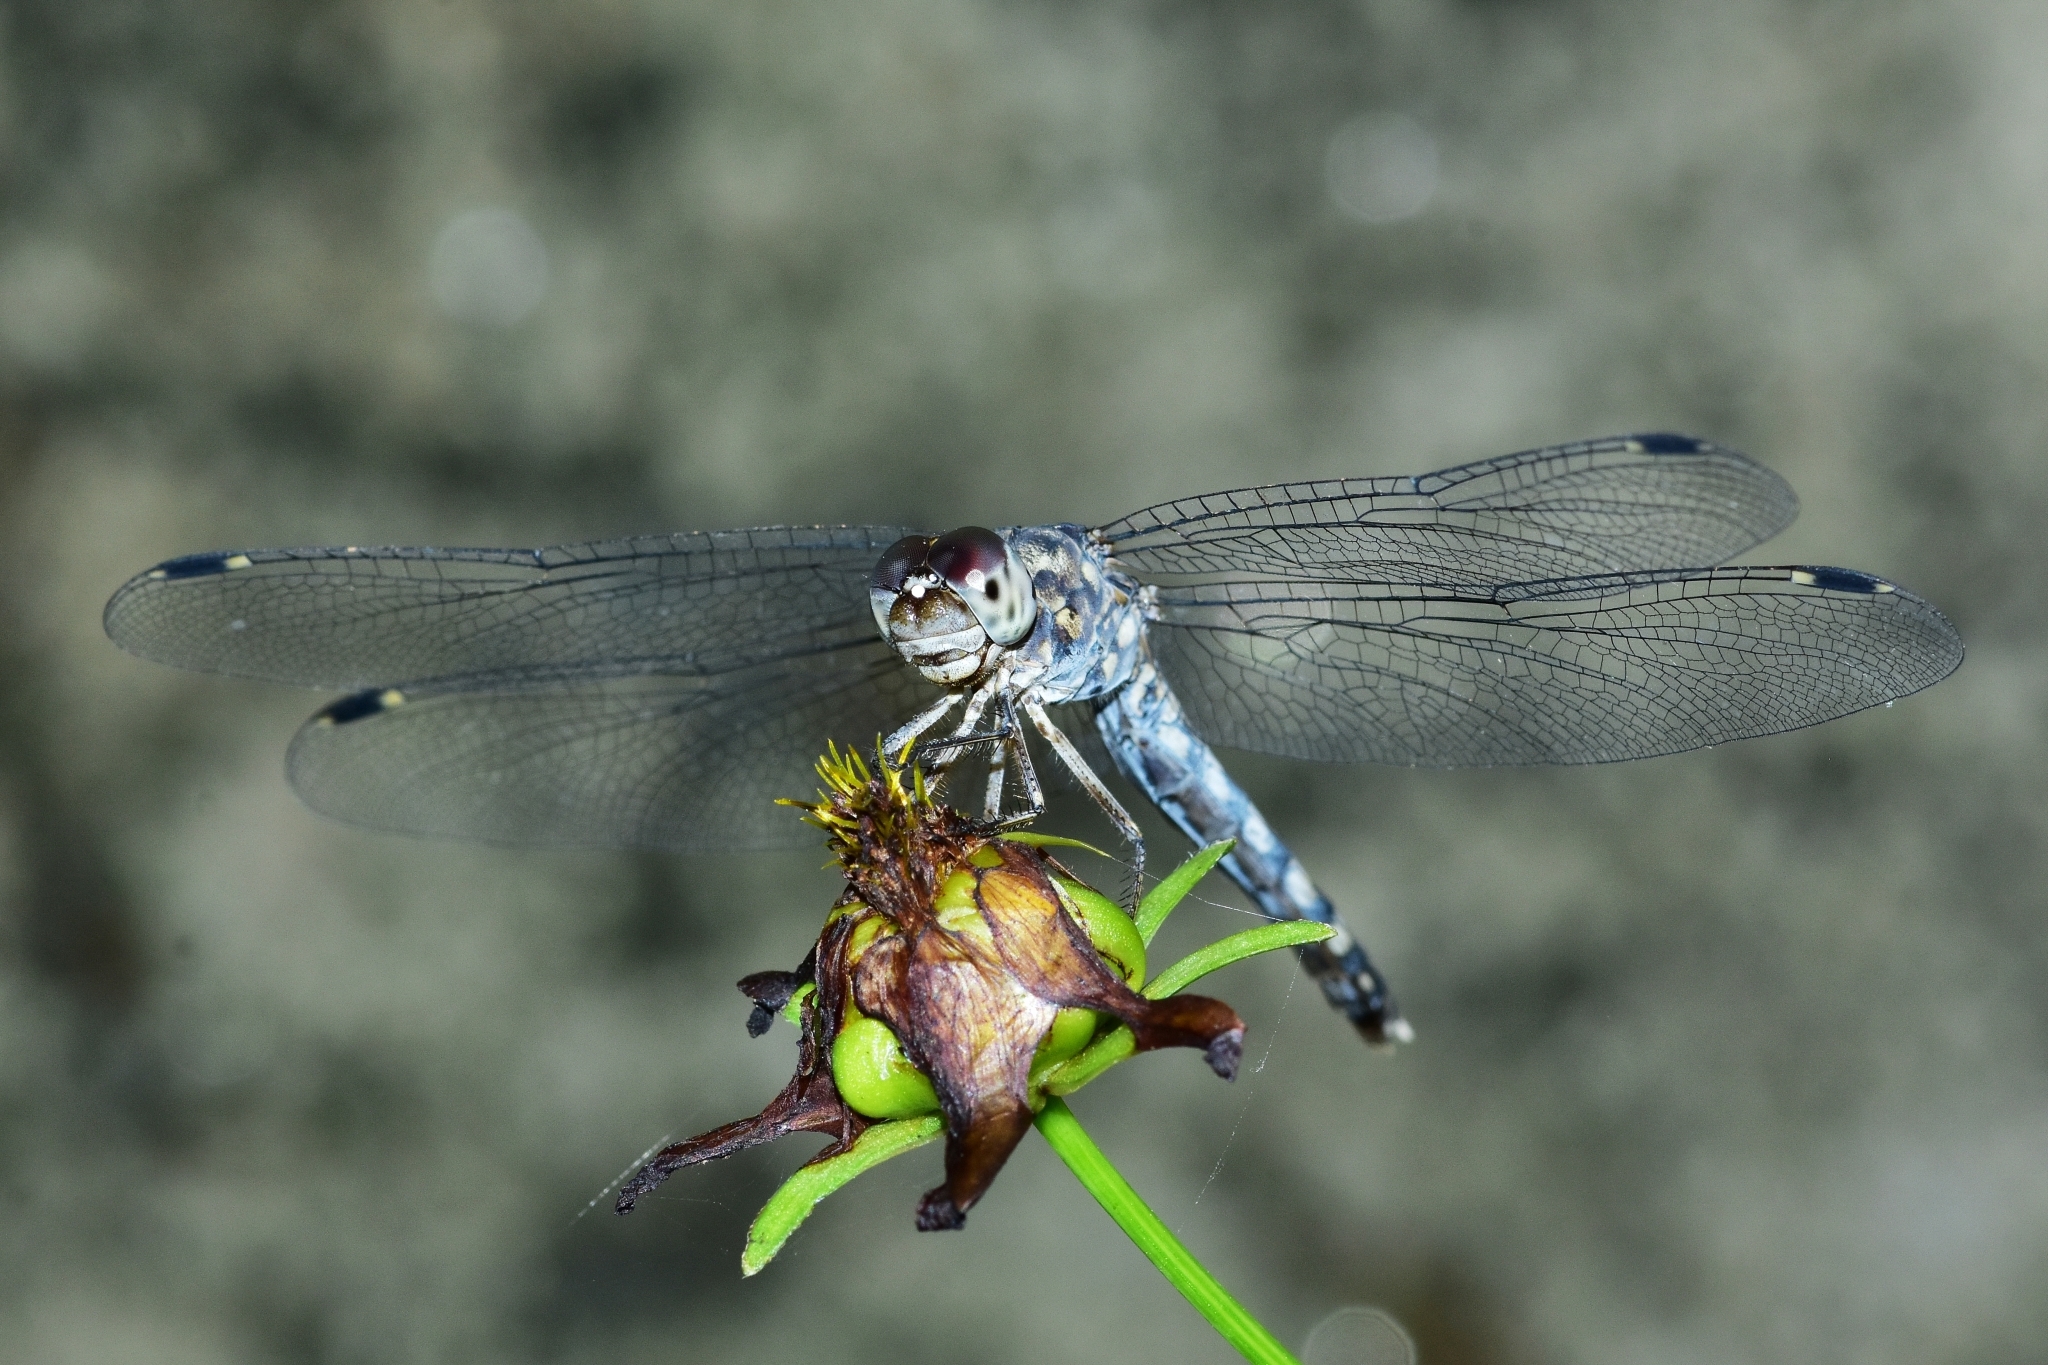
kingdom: Animalia
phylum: Arthropoda
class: Insecta
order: Odonata
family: Libellulidae
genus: Bradinopyga
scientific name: Bradinopyga geminata
